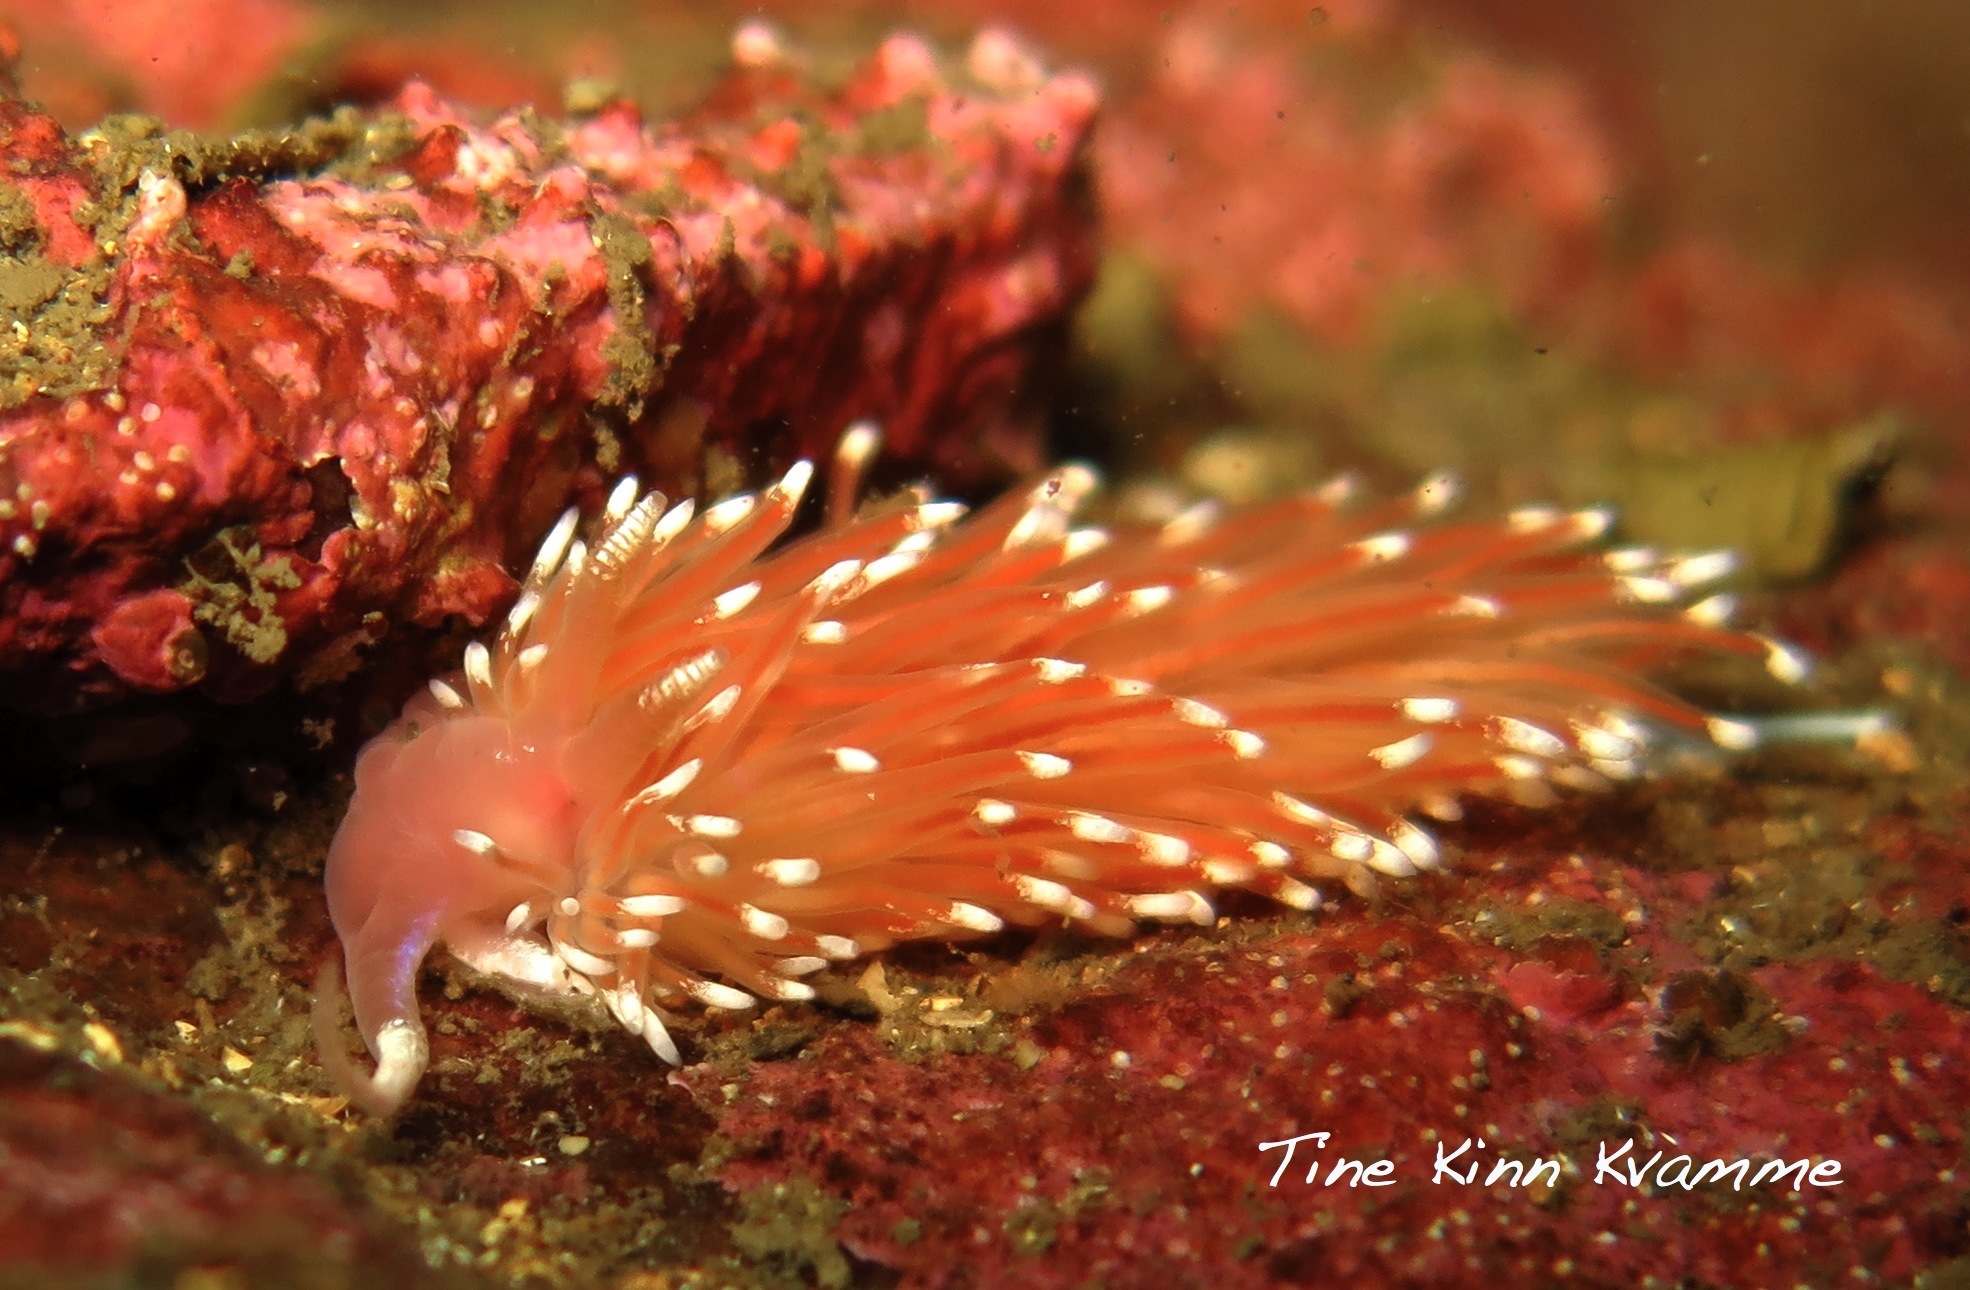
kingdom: Animalia
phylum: Mollusca
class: Gastropoda
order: Nudibranchia
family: Facelinidae
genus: Facelina
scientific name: Facelina bostoniensis
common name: Boston facelina
